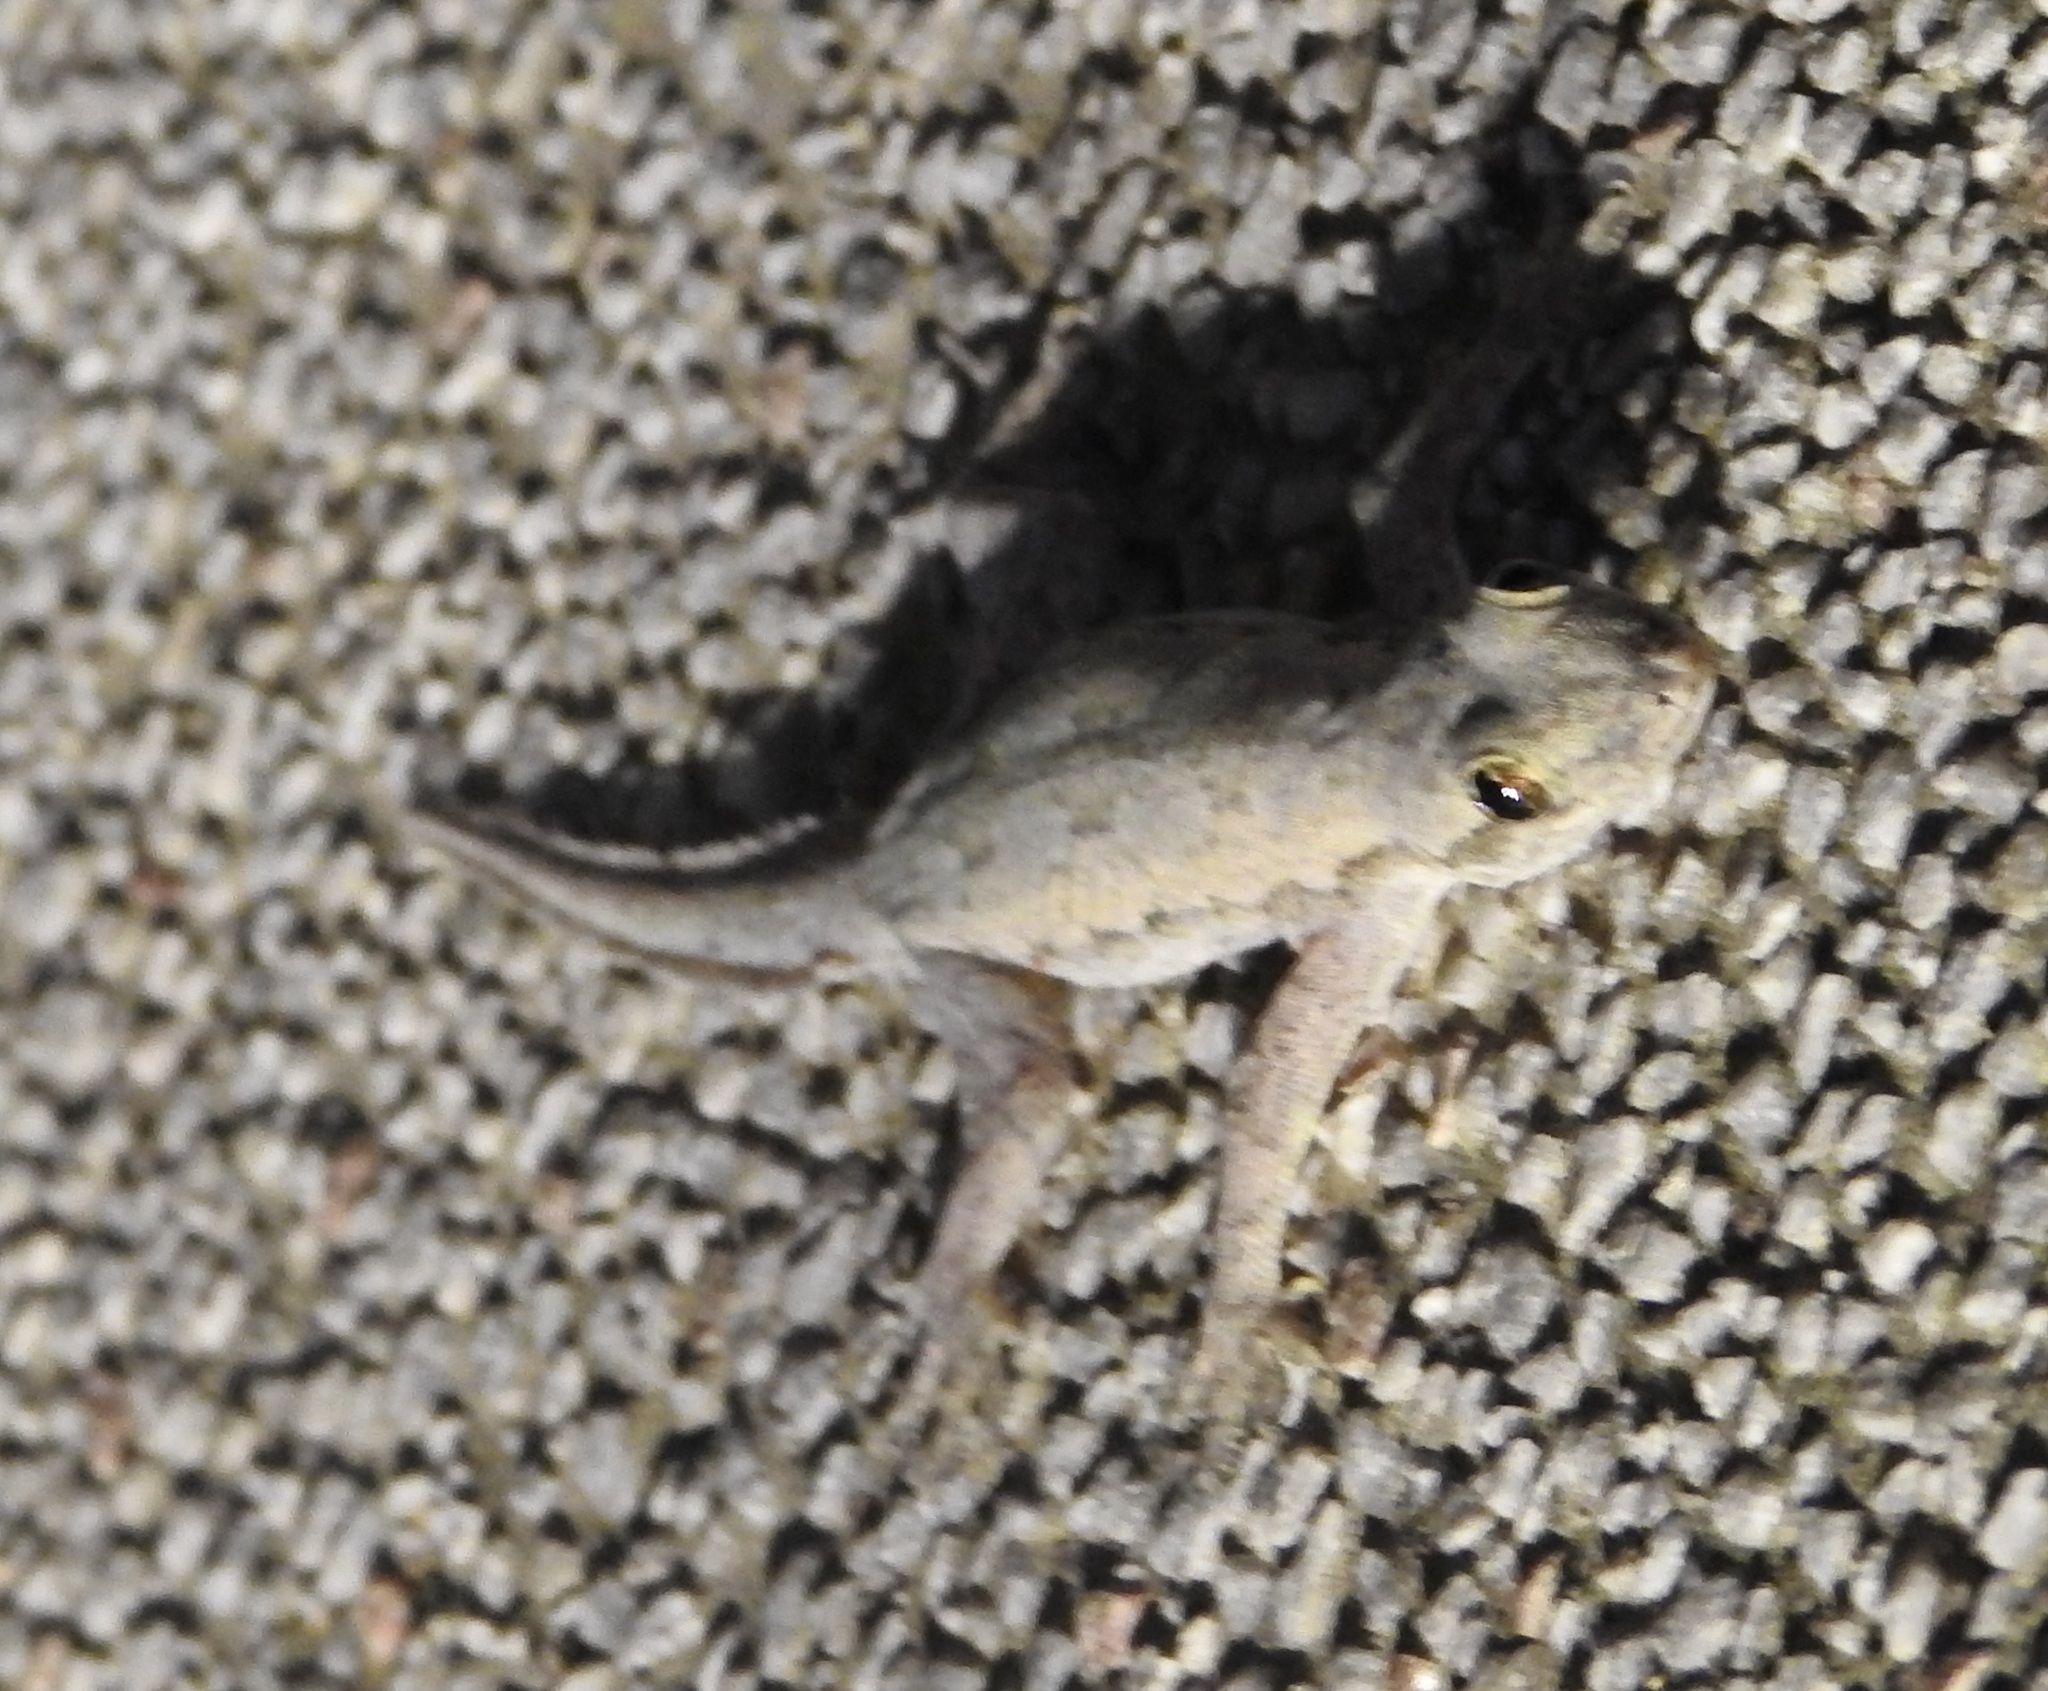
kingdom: Animalia
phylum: Chordata
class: Squamata
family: Gekkonidae
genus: Hemidactylus
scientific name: Hemidactylus platyurus
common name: Flat-tailed house gecko
